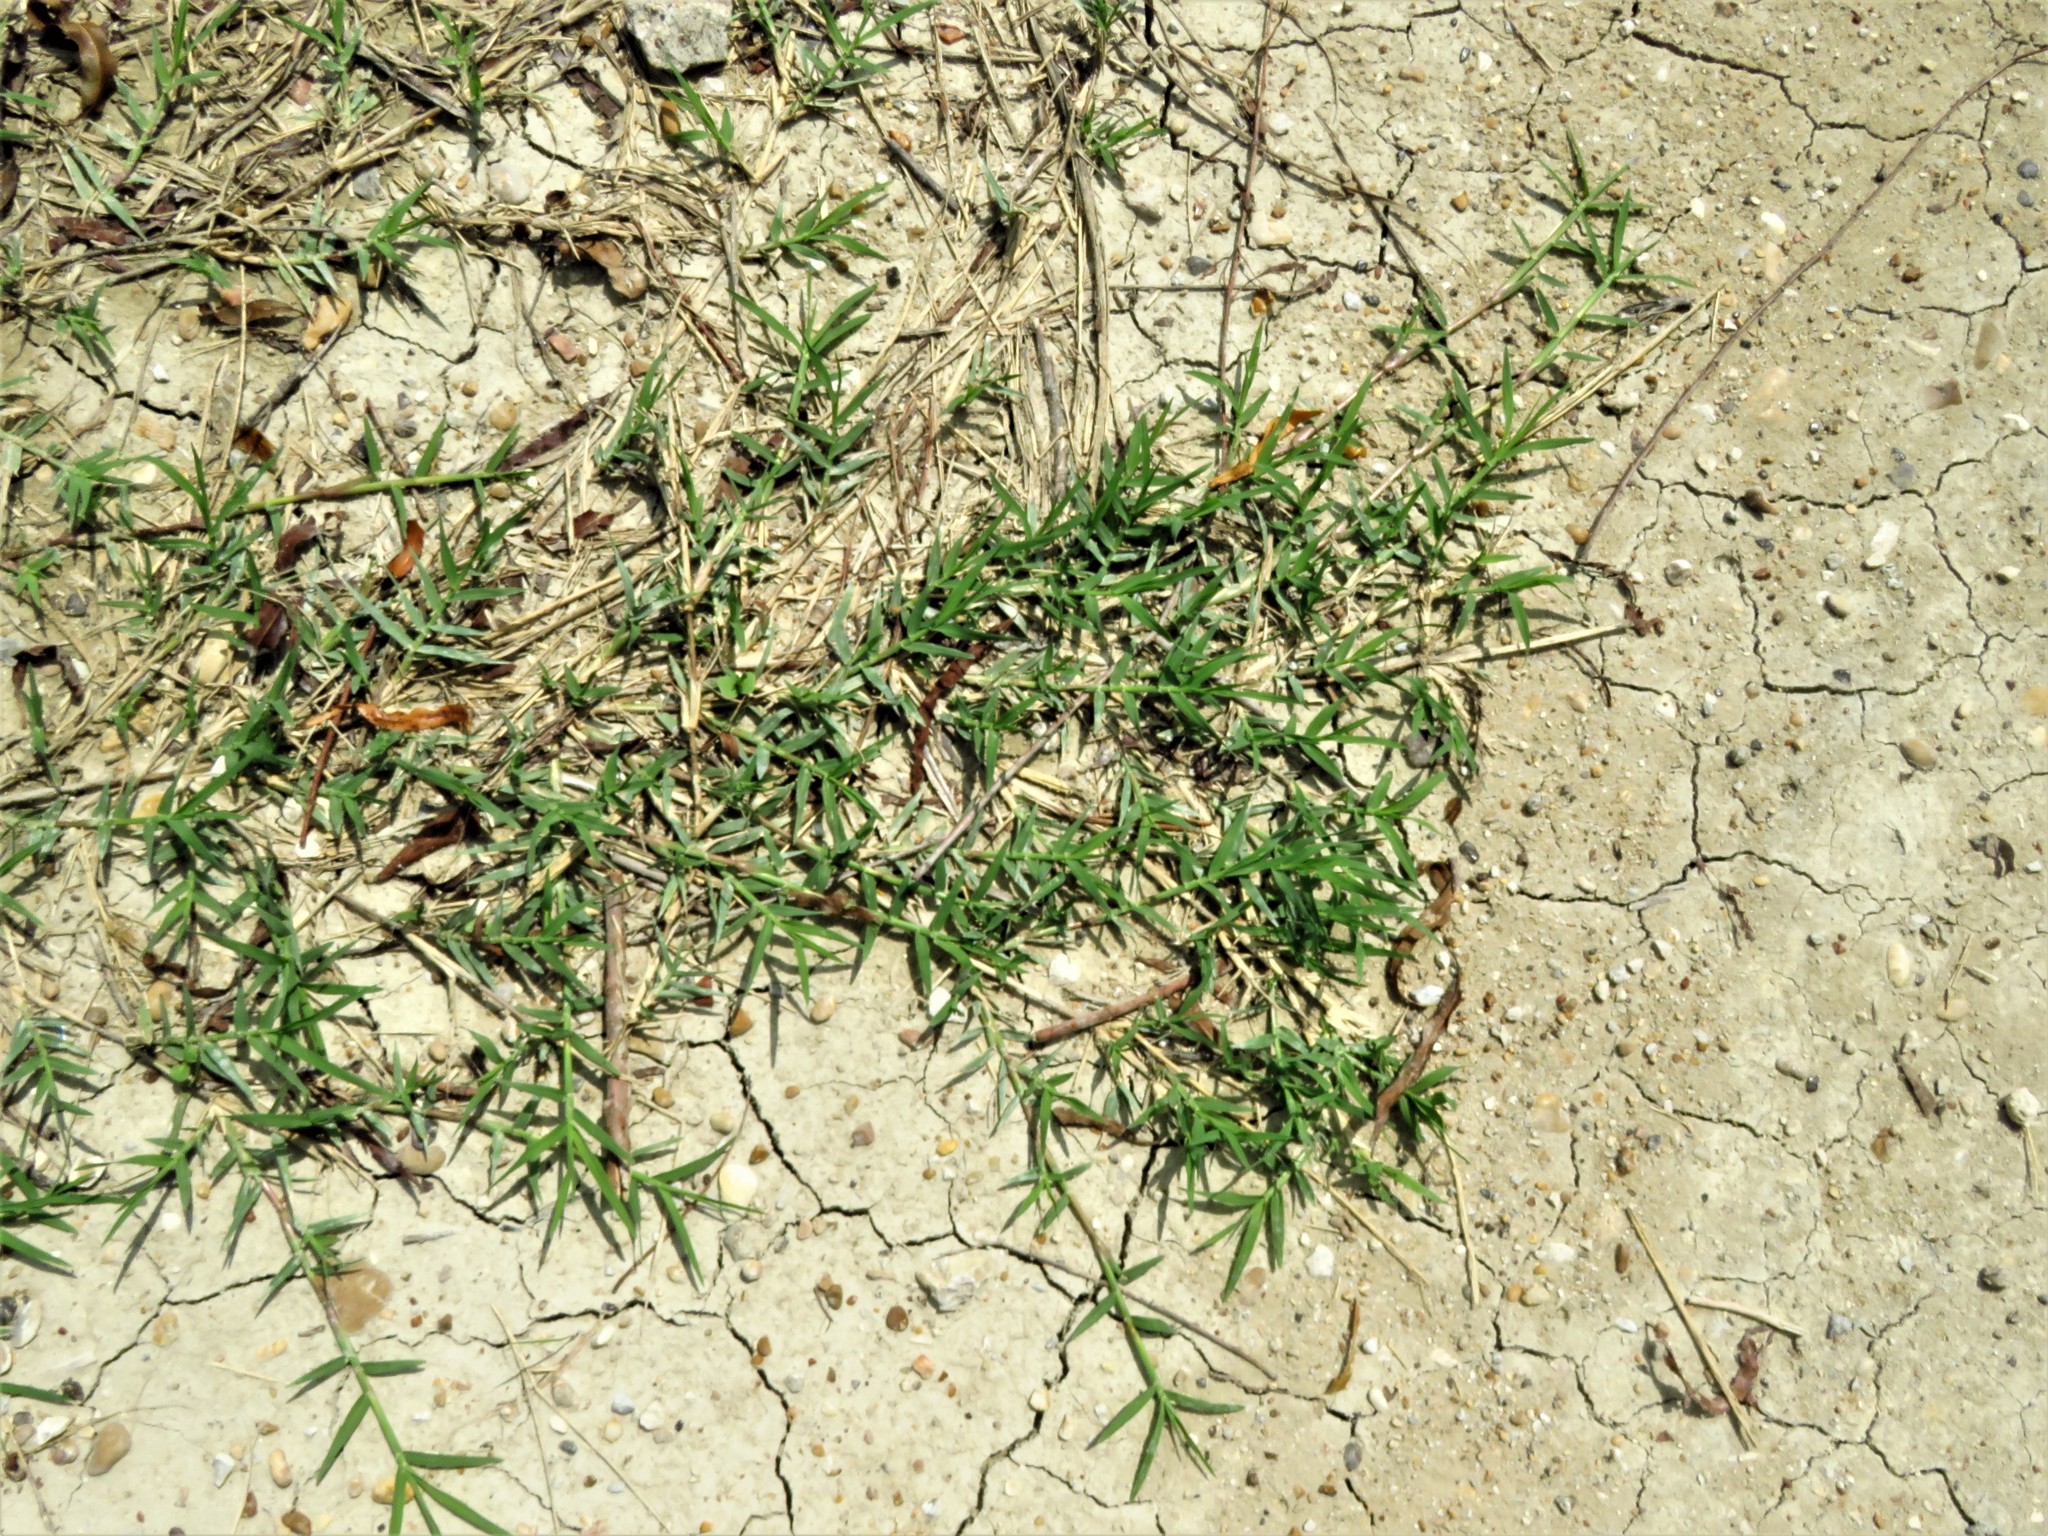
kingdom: Plantae
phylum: Tracheophyta
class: Liliopsida
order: Poales
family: Poaceae
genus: Cynodon
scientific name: Cynodon dactylon
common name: Bermuda grass
